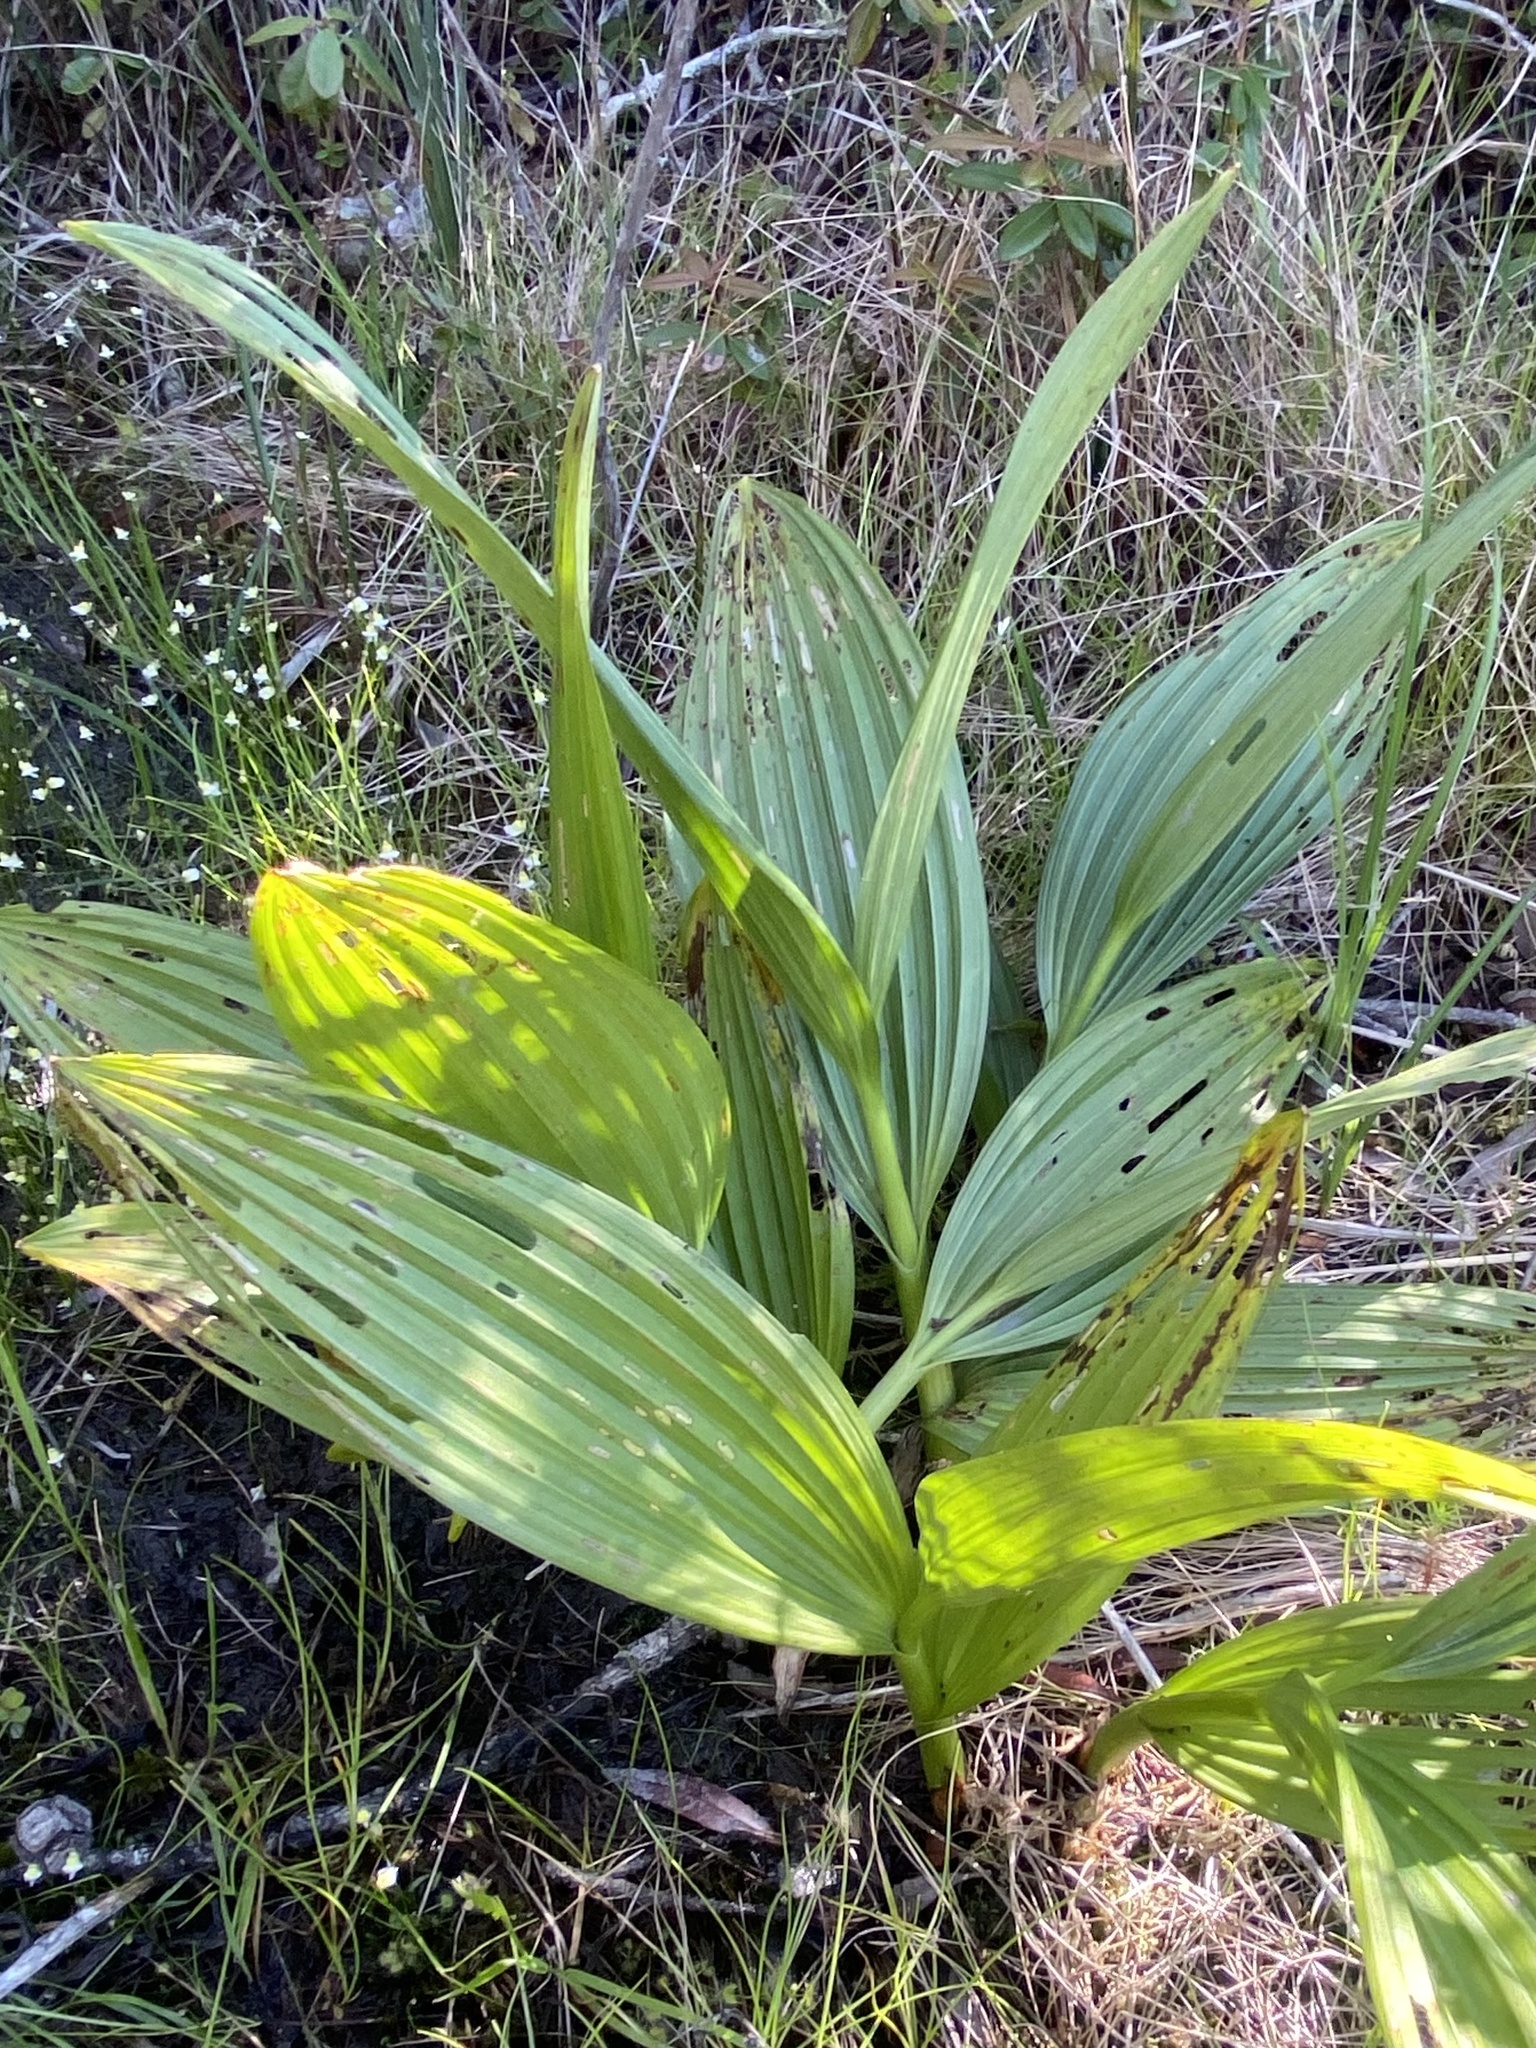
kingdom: Plantae
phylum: Tracheophyta
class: Liliopsida
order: Liliales
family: Melanthiaceae
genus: Veratrum
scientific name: Veratrum fimbriatum
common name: Fringe false hellobore
